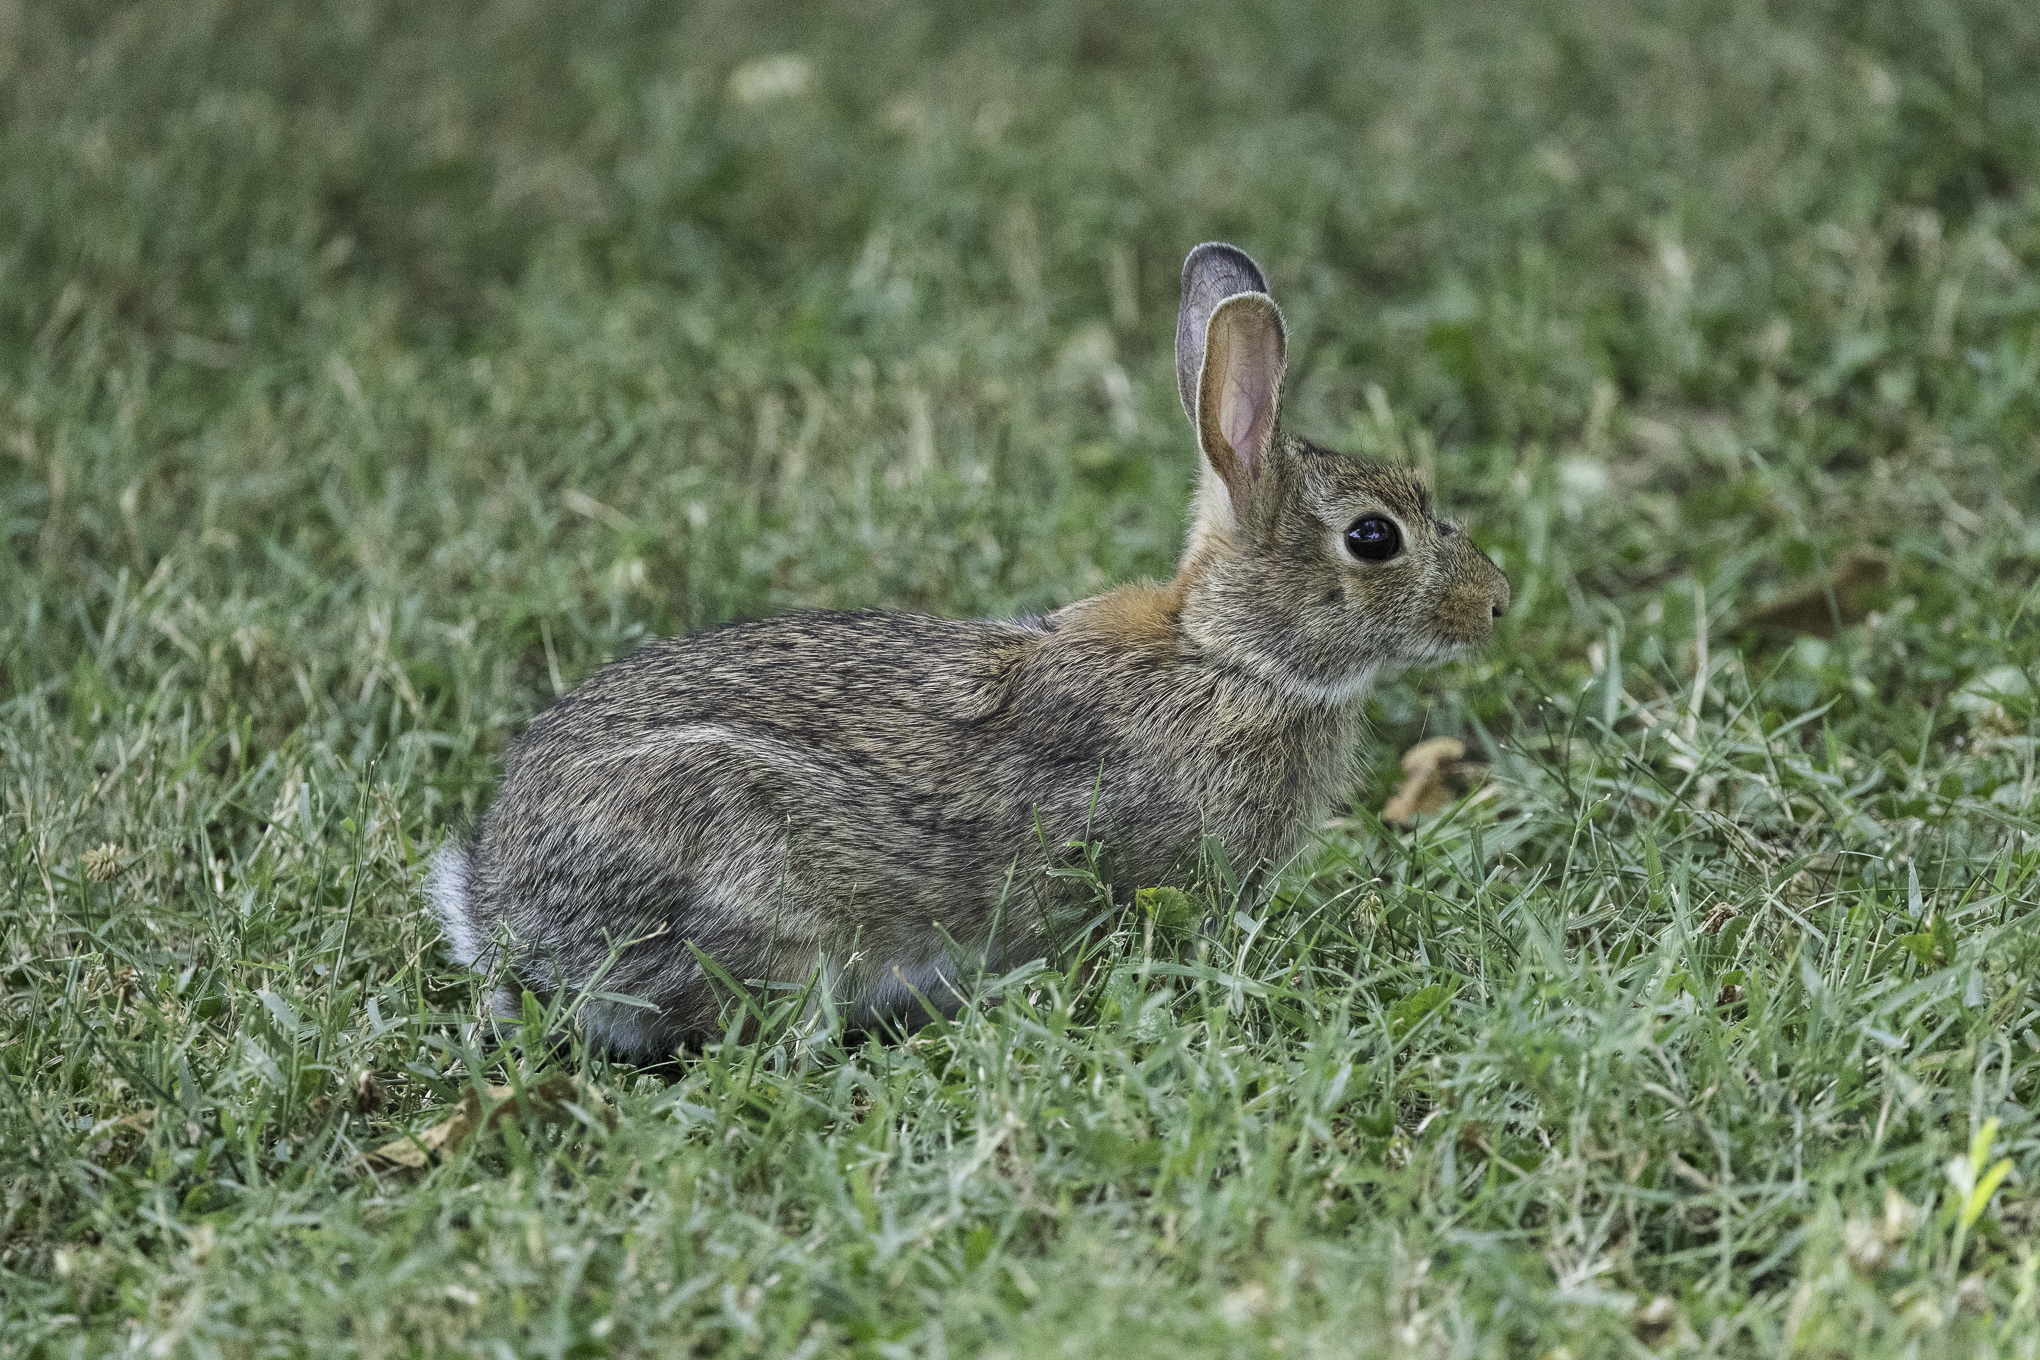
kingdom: Animalia
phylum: Chordata
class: Mammalia
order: Lagomorpha
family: Leporidae
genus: Sylvilagus
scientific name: Sylvilagus floridanus
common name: Eastern cottontail
